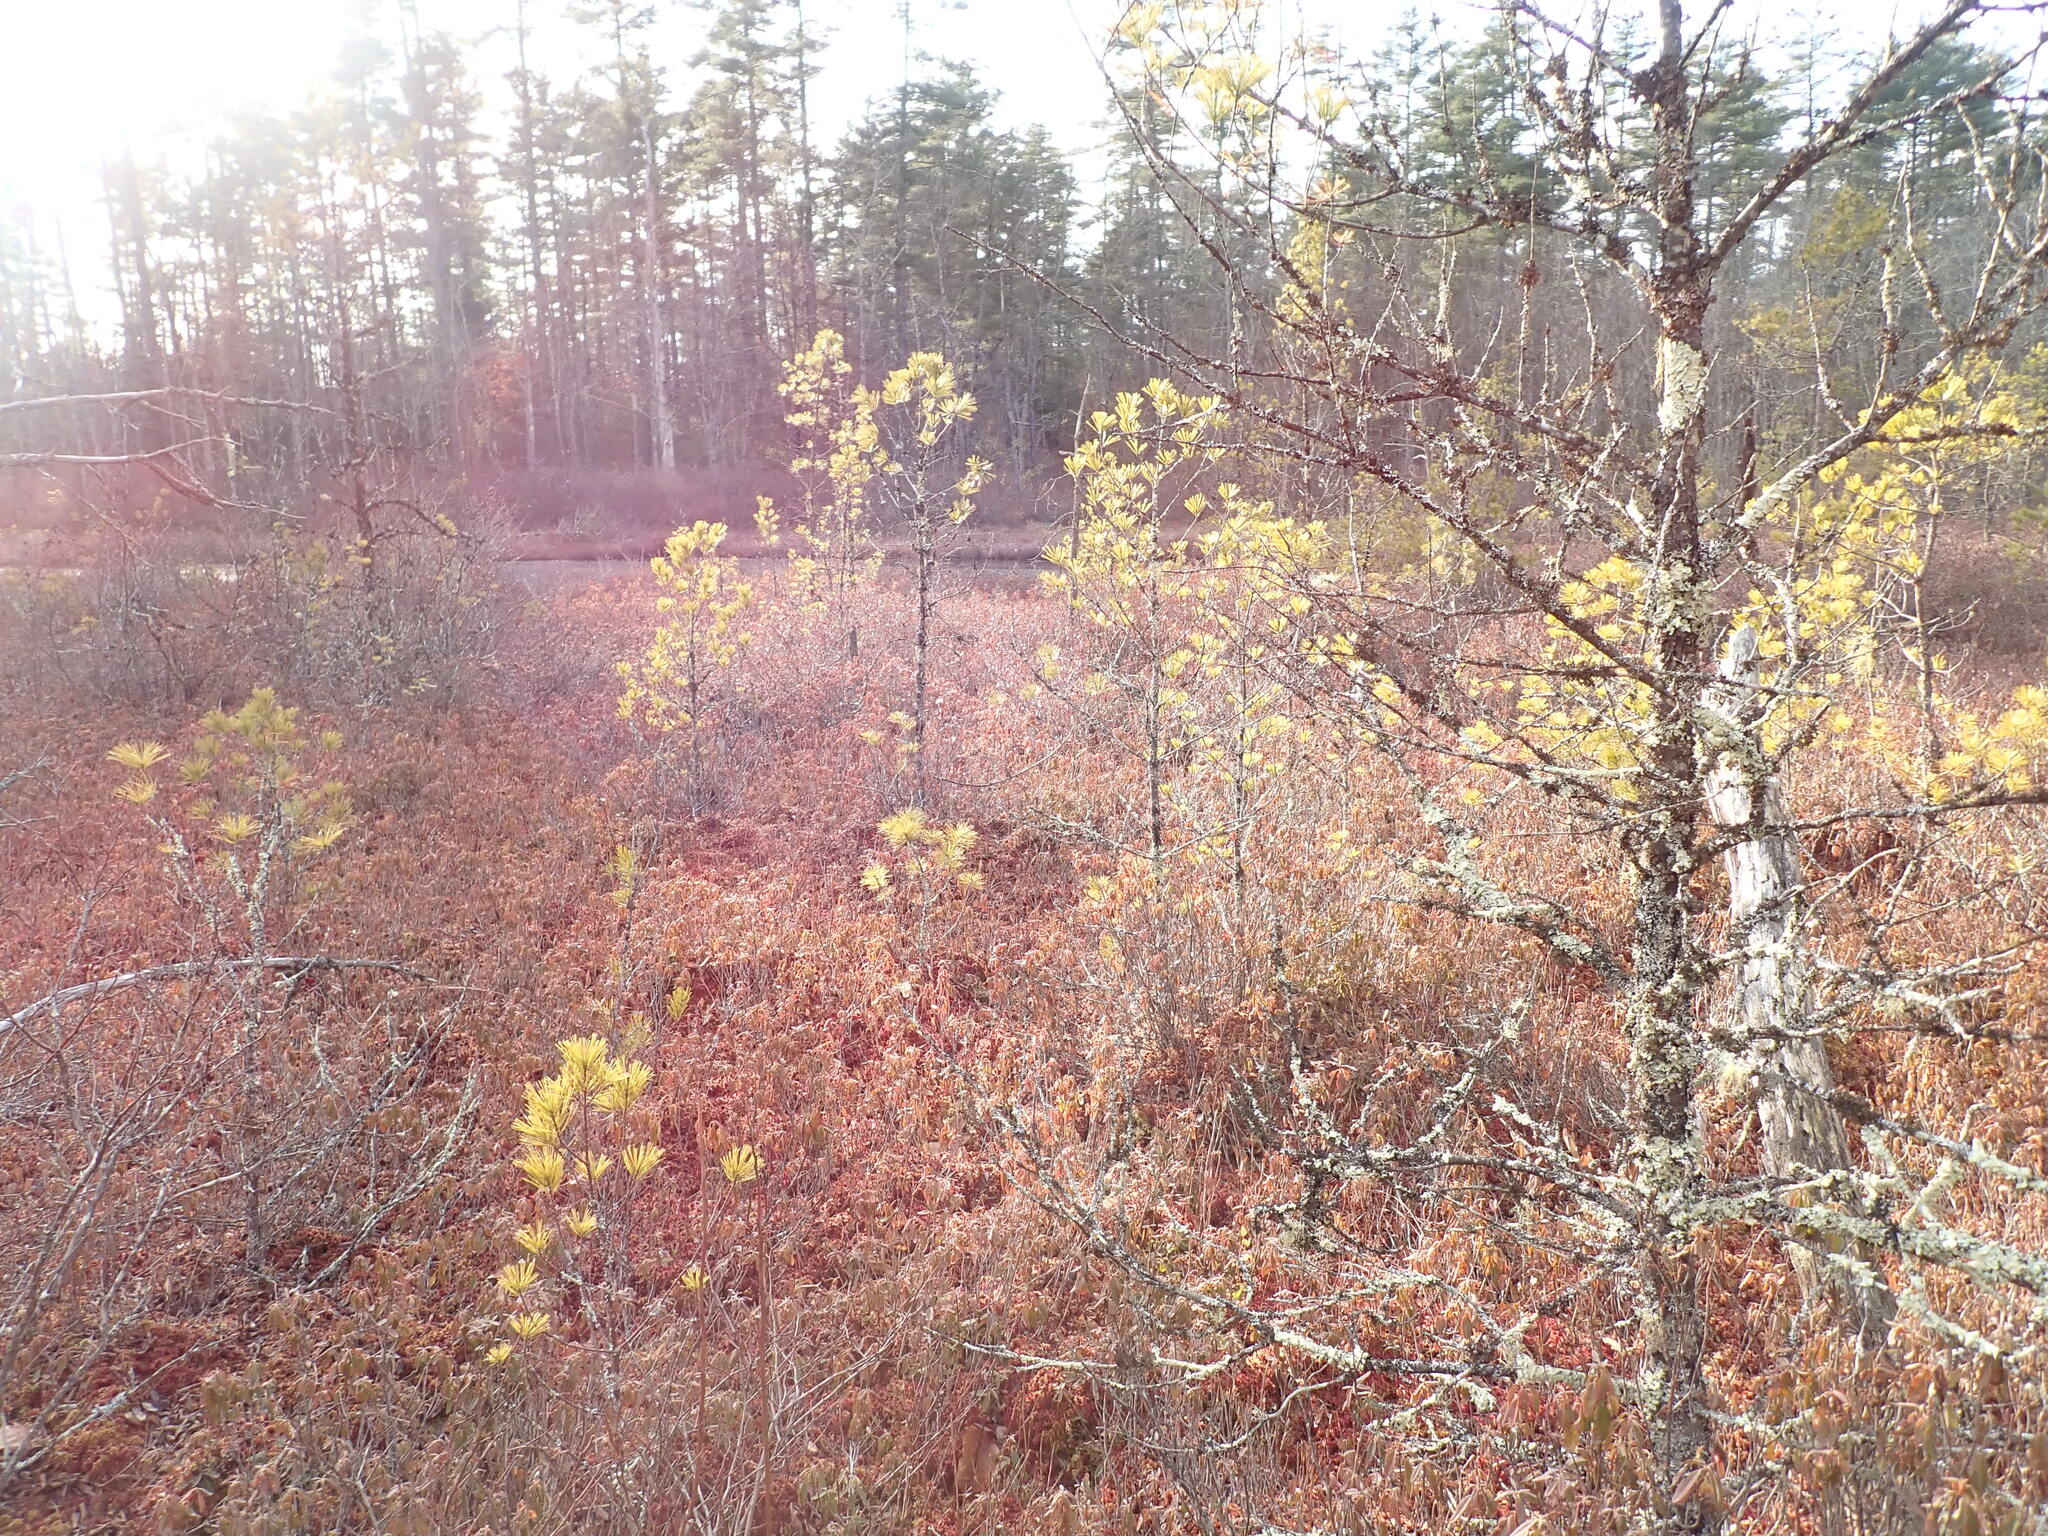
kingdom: Plantae
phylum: Tracheophyta
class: Pinopsida
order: Pinales
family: Pinaceae
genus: Pinus
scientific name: Pinus strobus
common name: Weymouth pine
